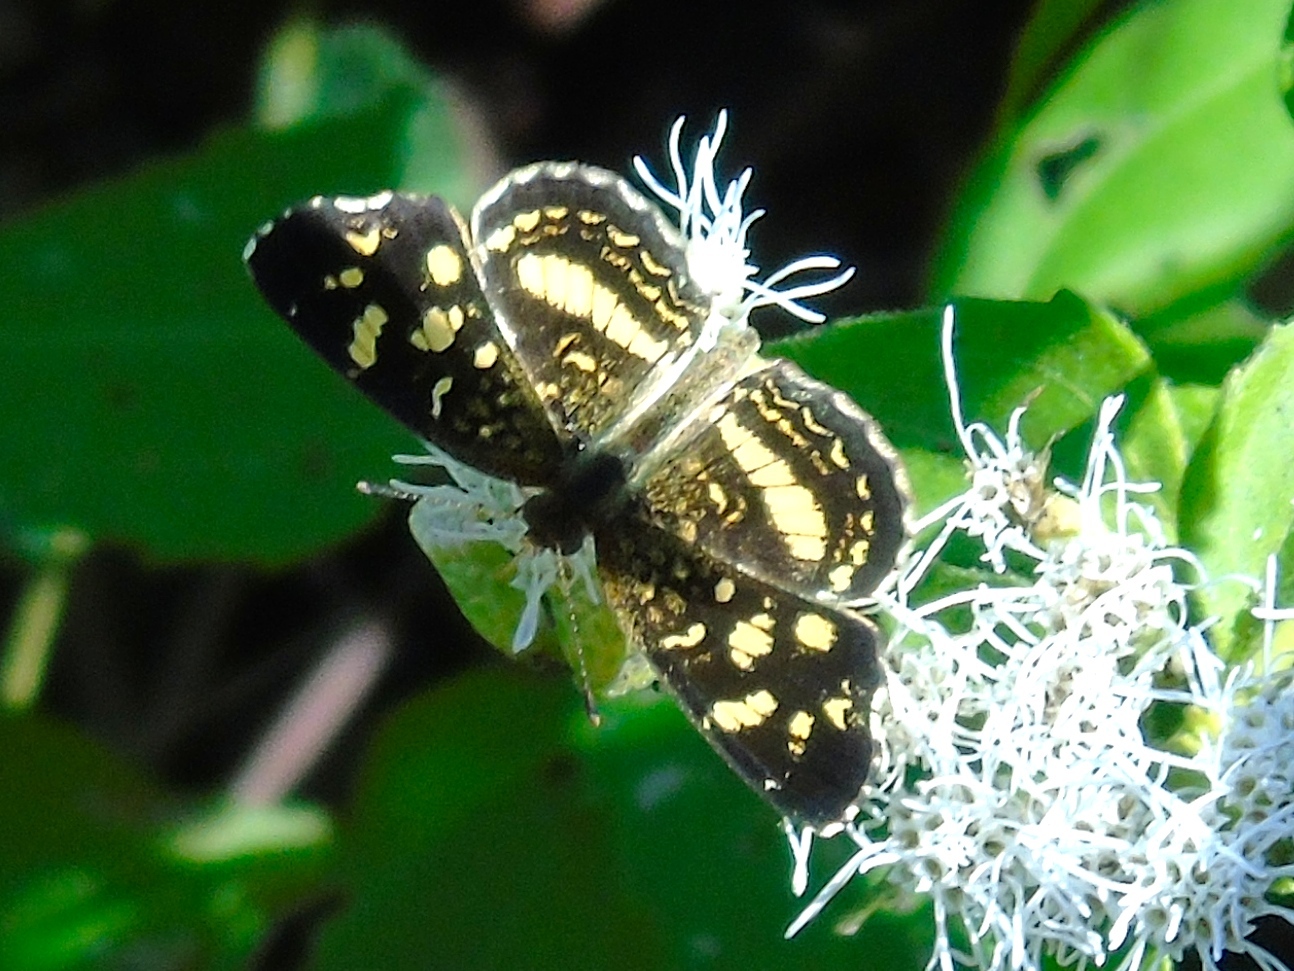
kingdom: Animalia
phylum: Arthropoda
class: Insecta
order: Lepidoptera
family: Nymphalidae
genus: Anthanassa
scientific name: Anthanassa tulcis
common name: Pale-banded crescent
